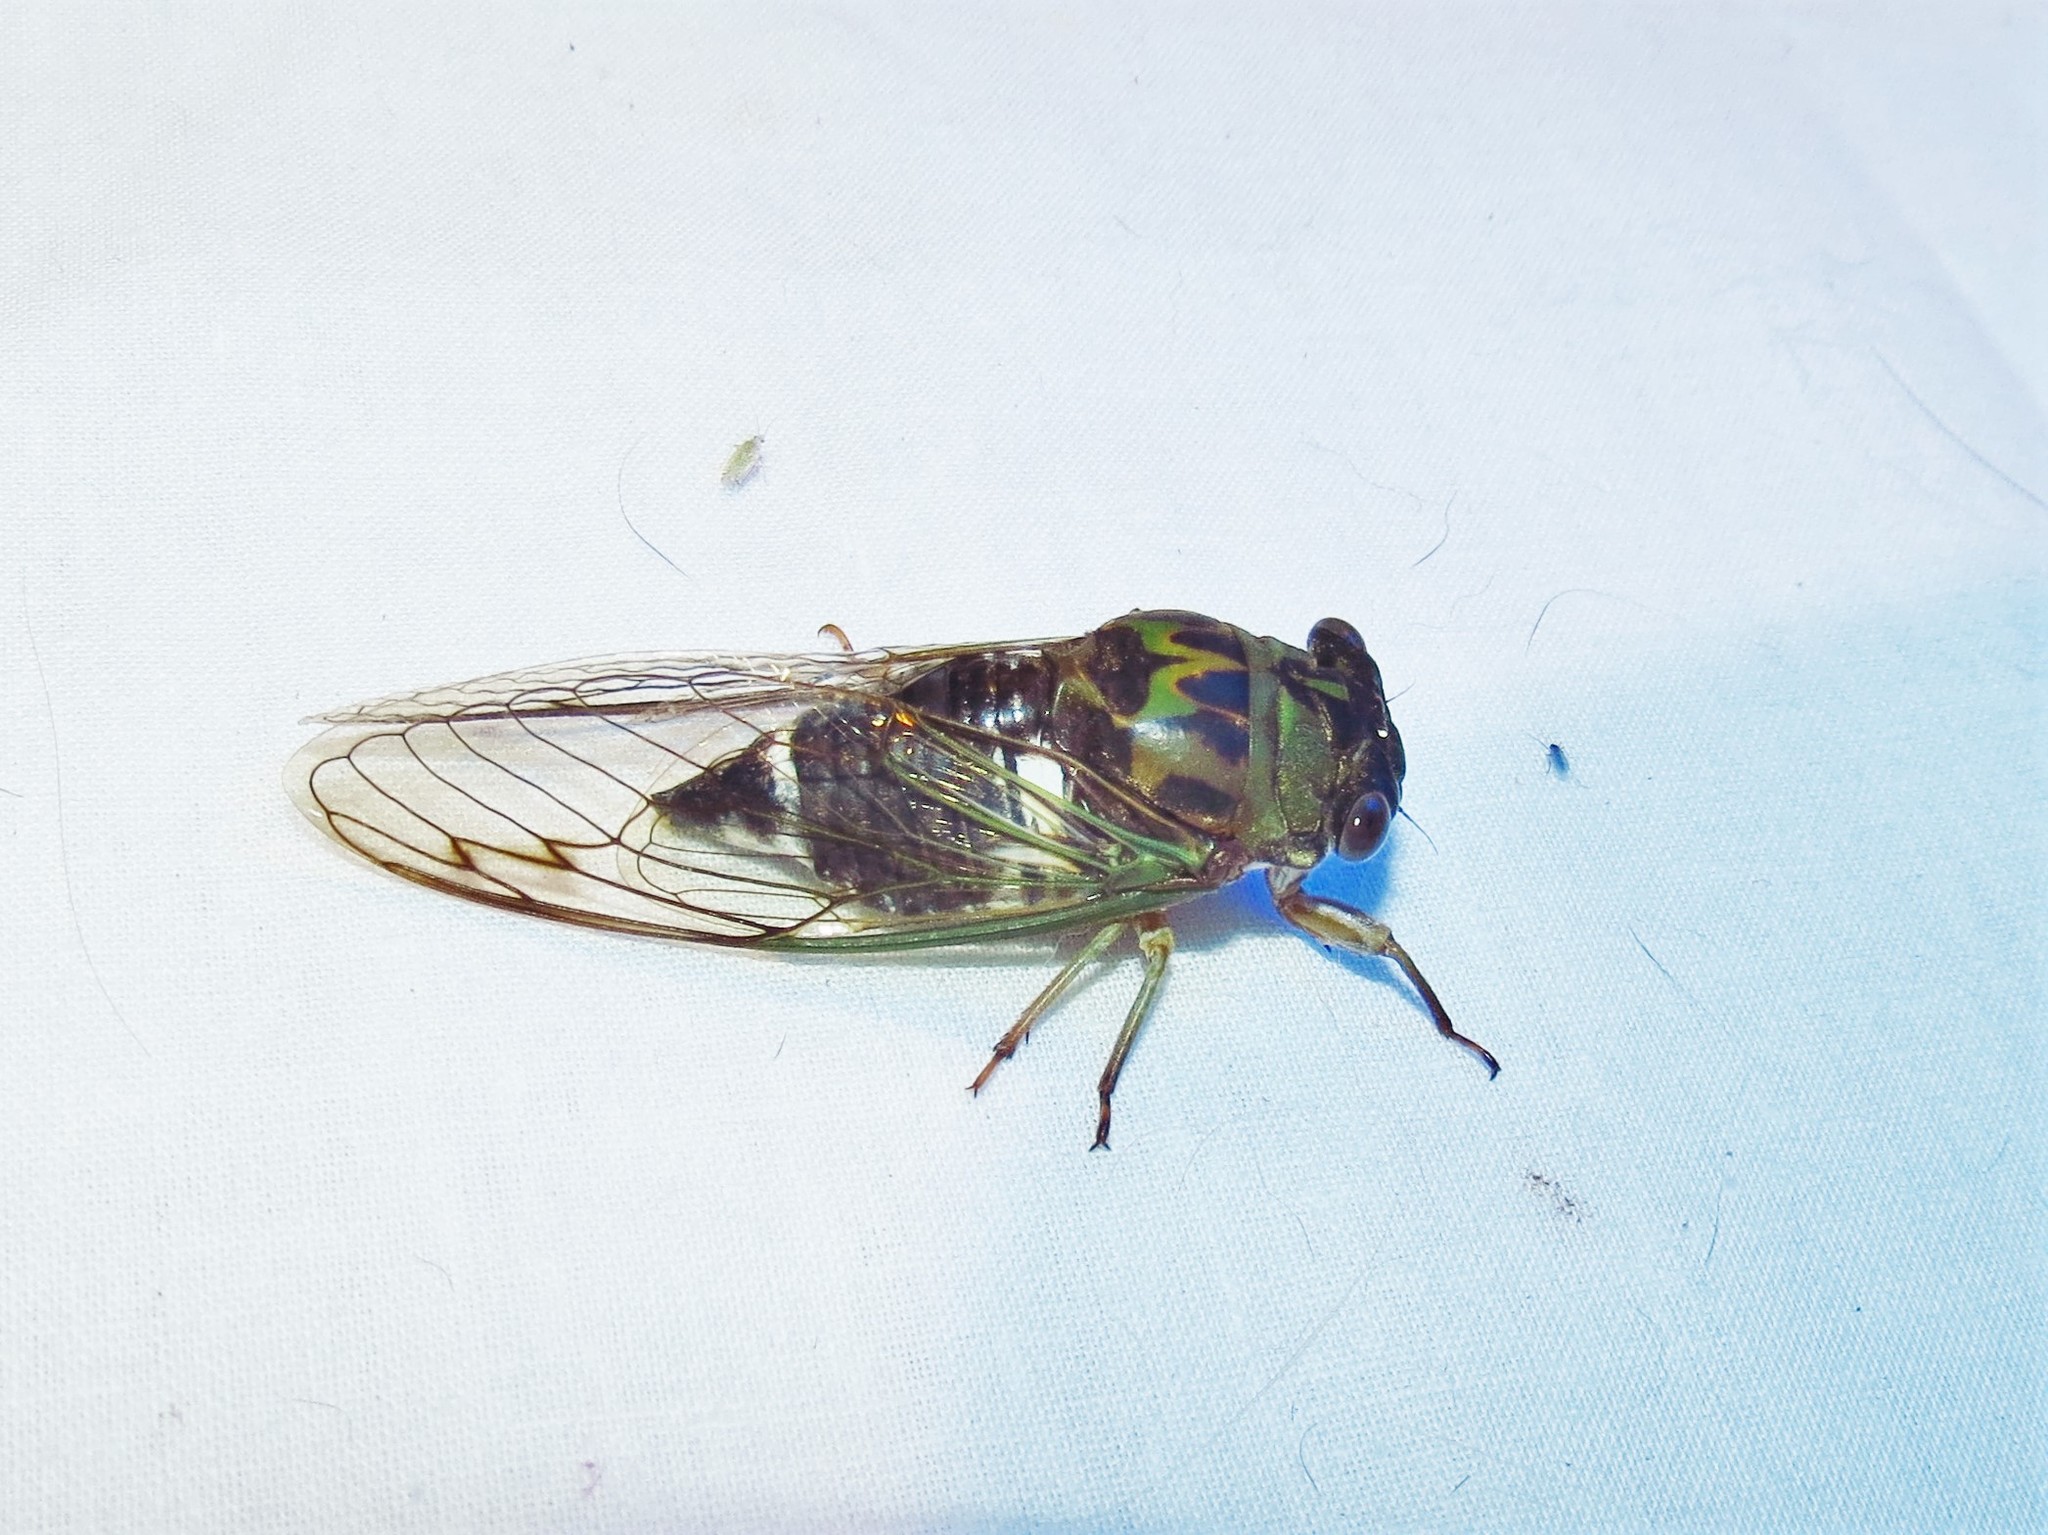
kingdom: Animalia
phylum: Arthropoda
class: Insecta
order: Hemiptera
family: Cicadidae
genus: Neotibicen
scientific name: Neotibicen pruinosus
